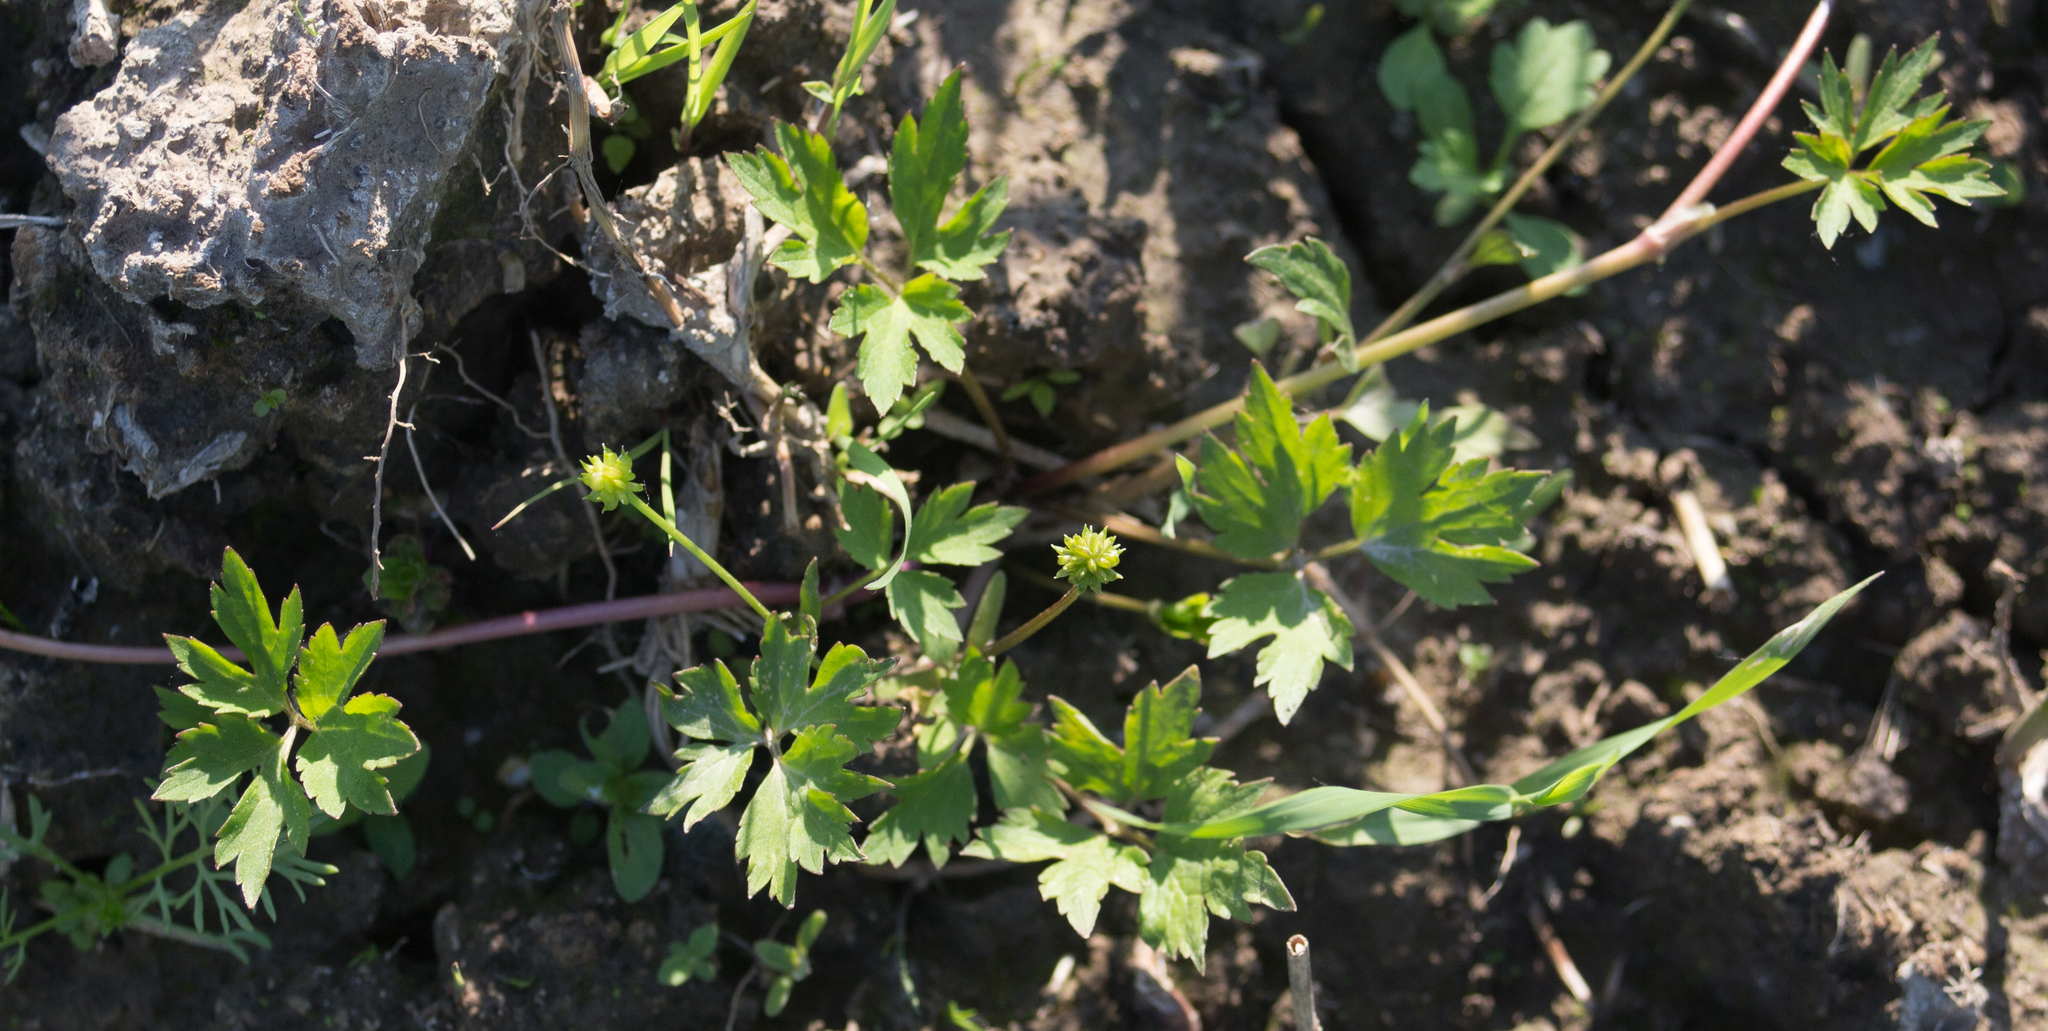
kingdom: Plantae
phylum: Tracheophyta
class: Magnoliopsida
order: Ranunculales
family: Ranunculaceae
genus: Ranunculus
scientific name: Ranunculus repens
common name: Creeping buttercup
